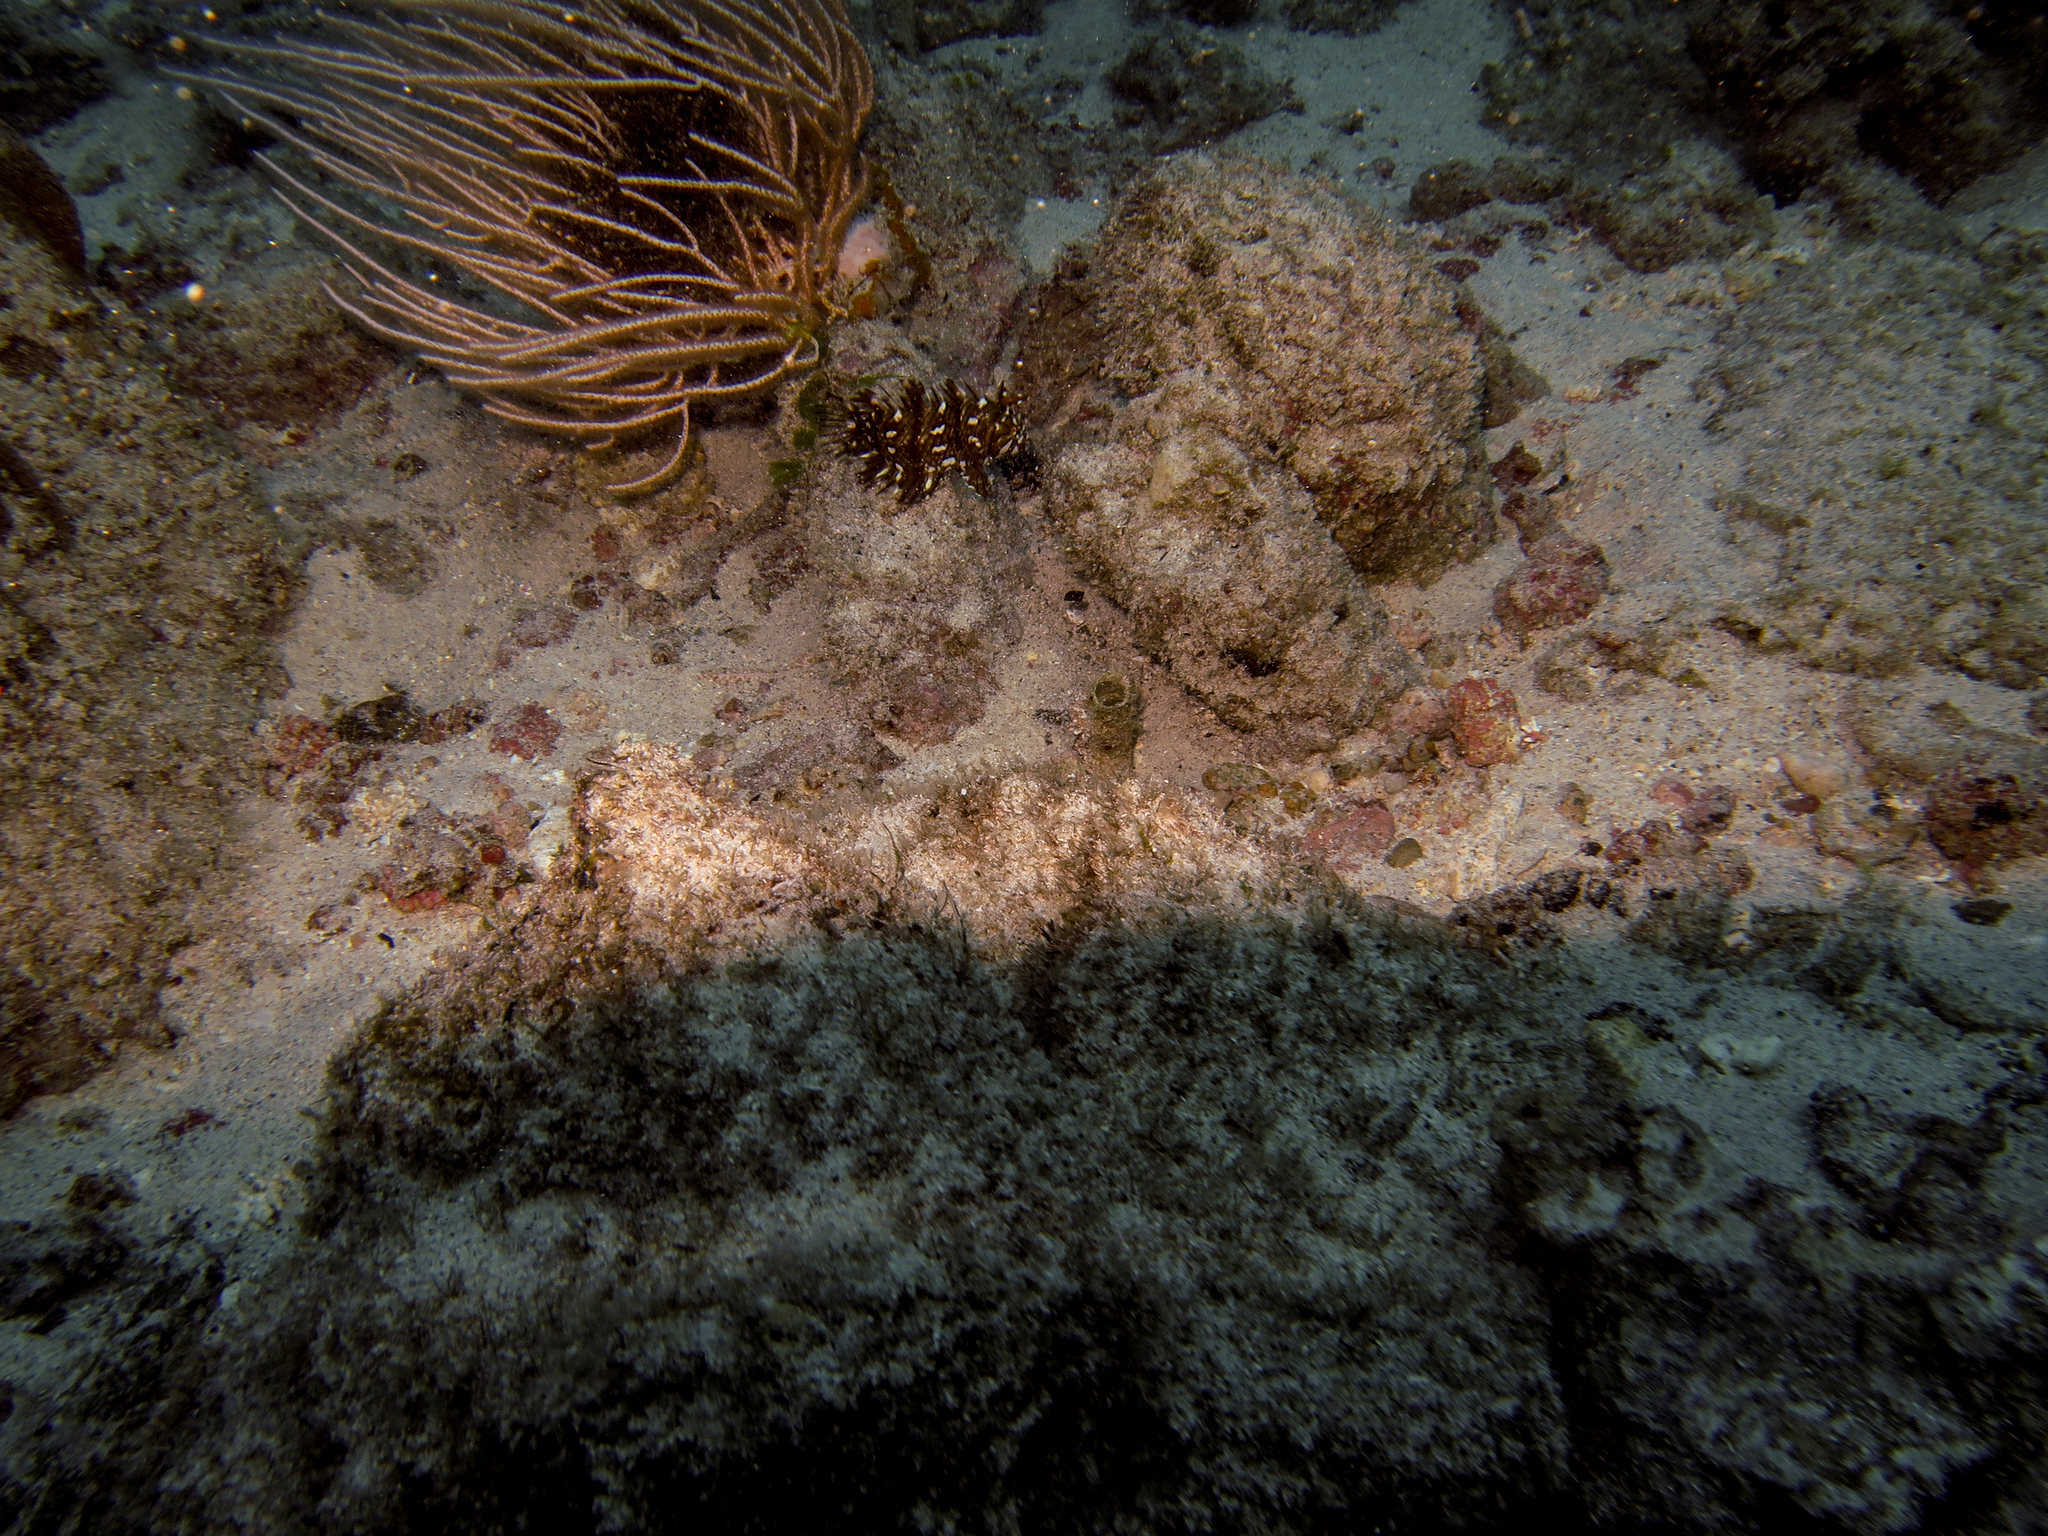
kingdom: Animalia
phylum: Chordata
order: Perciformes
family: Labridae
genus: Novaculichthys
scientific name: Novaculichthys taeniourus
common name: Rockmover wrasse
